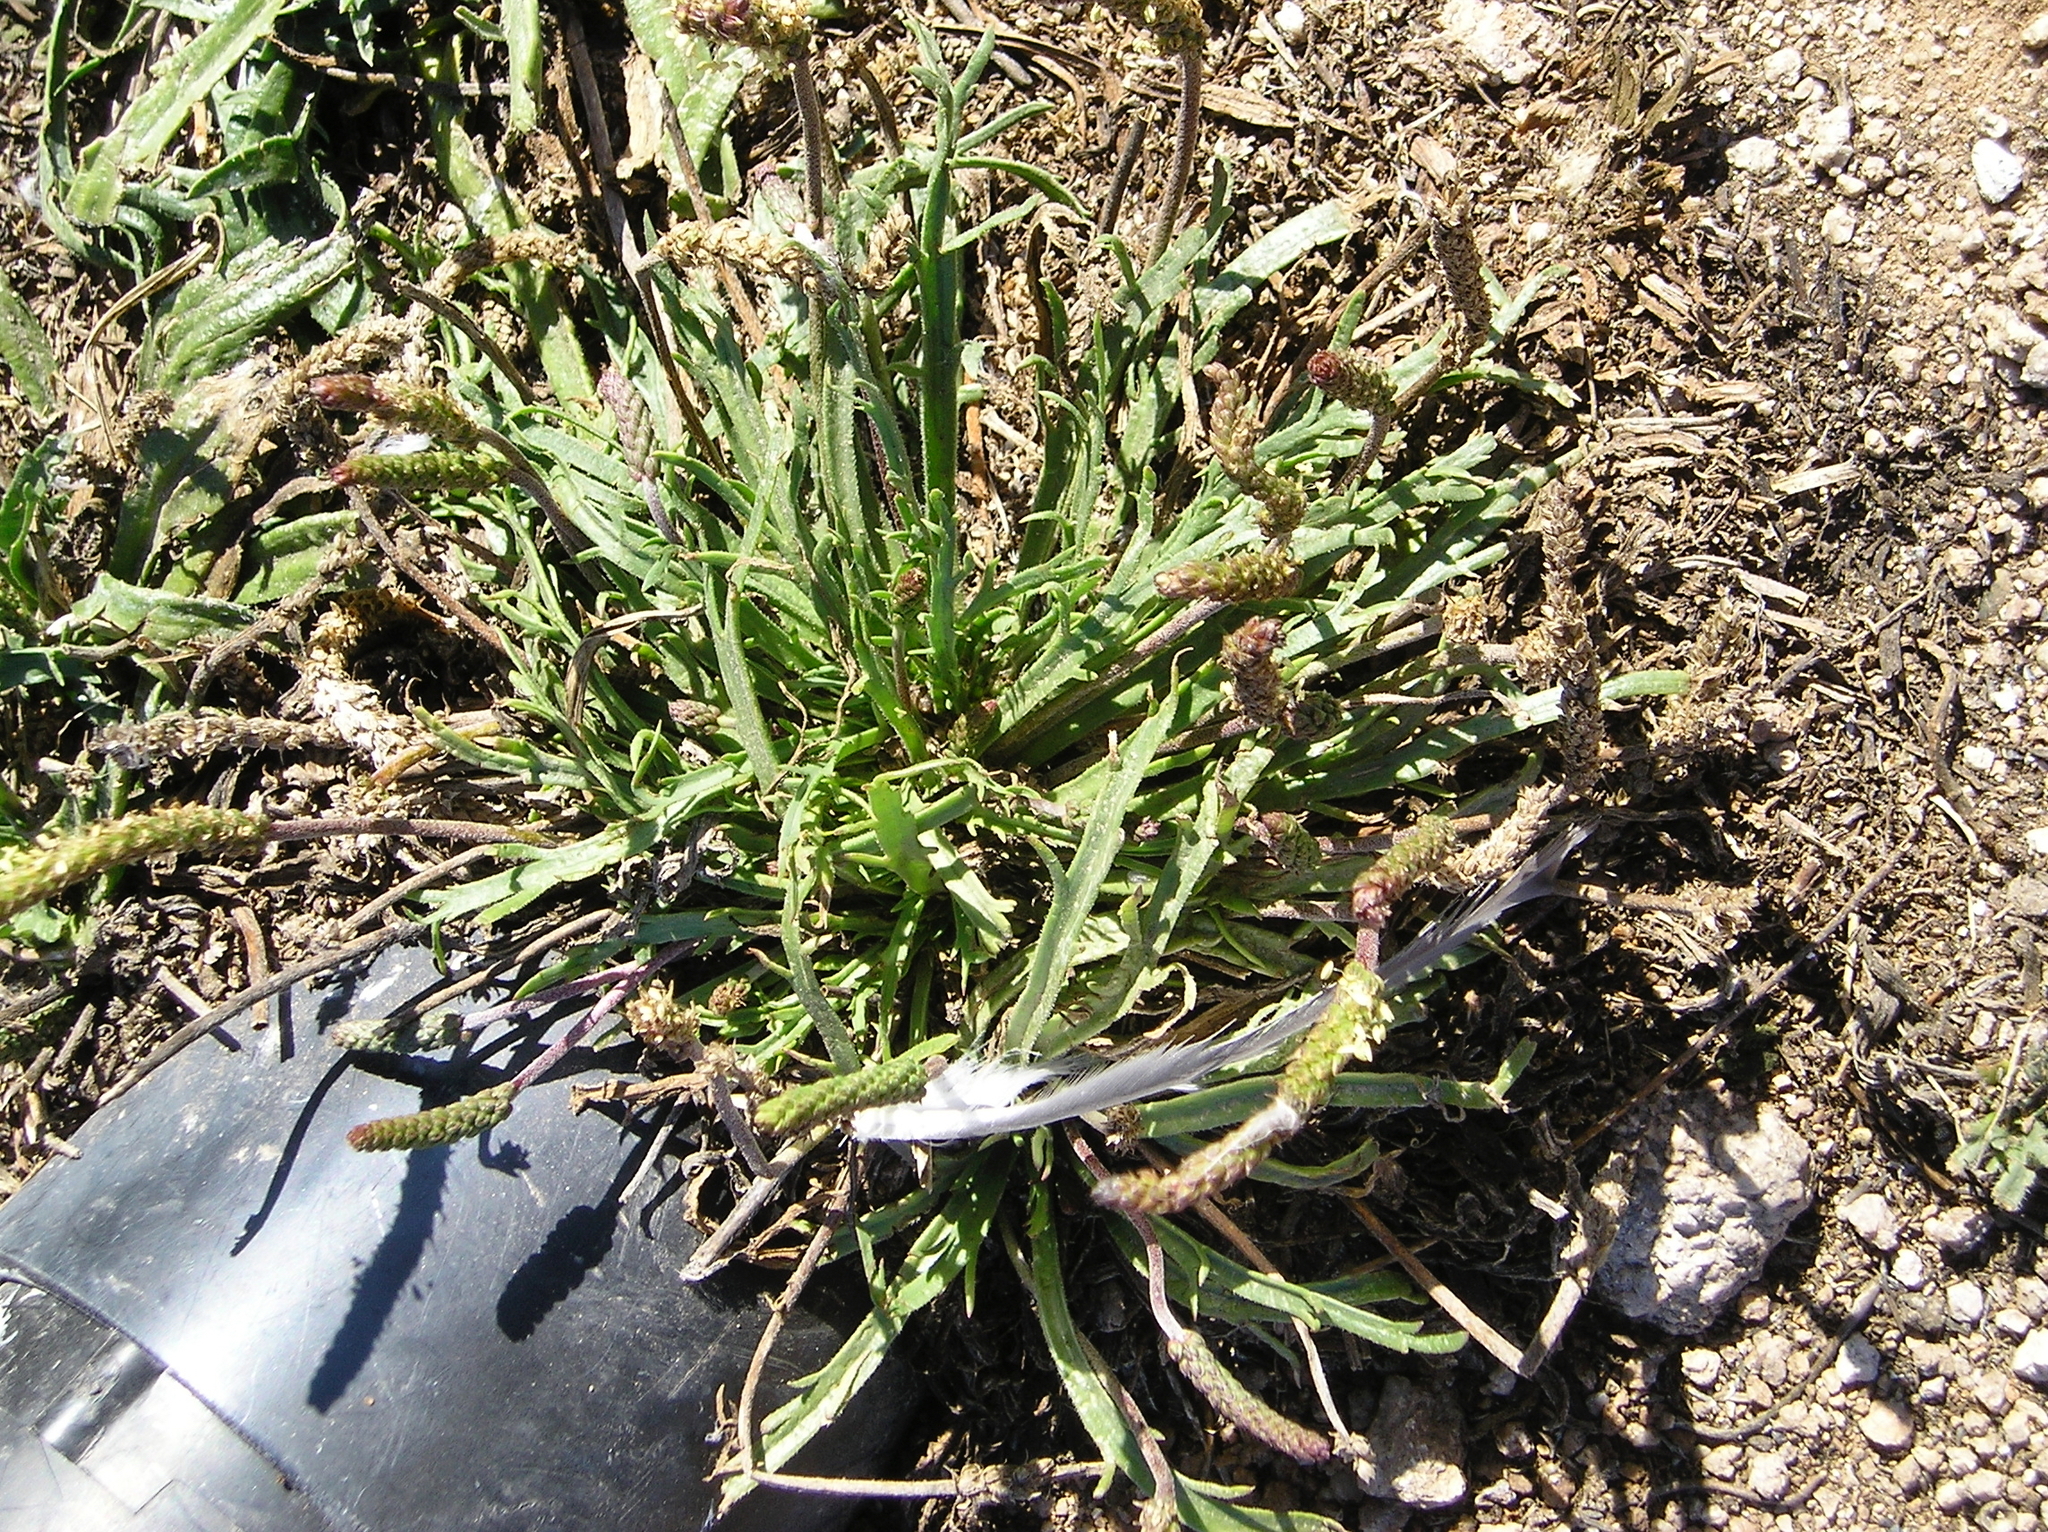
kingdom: Plantae
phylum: Tracheophyta
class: Magnoliopsida
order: Lamiales
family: Plantaginaceae
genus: Plantago
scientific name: Plantago coronopus
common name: Buck's-horn plantain
